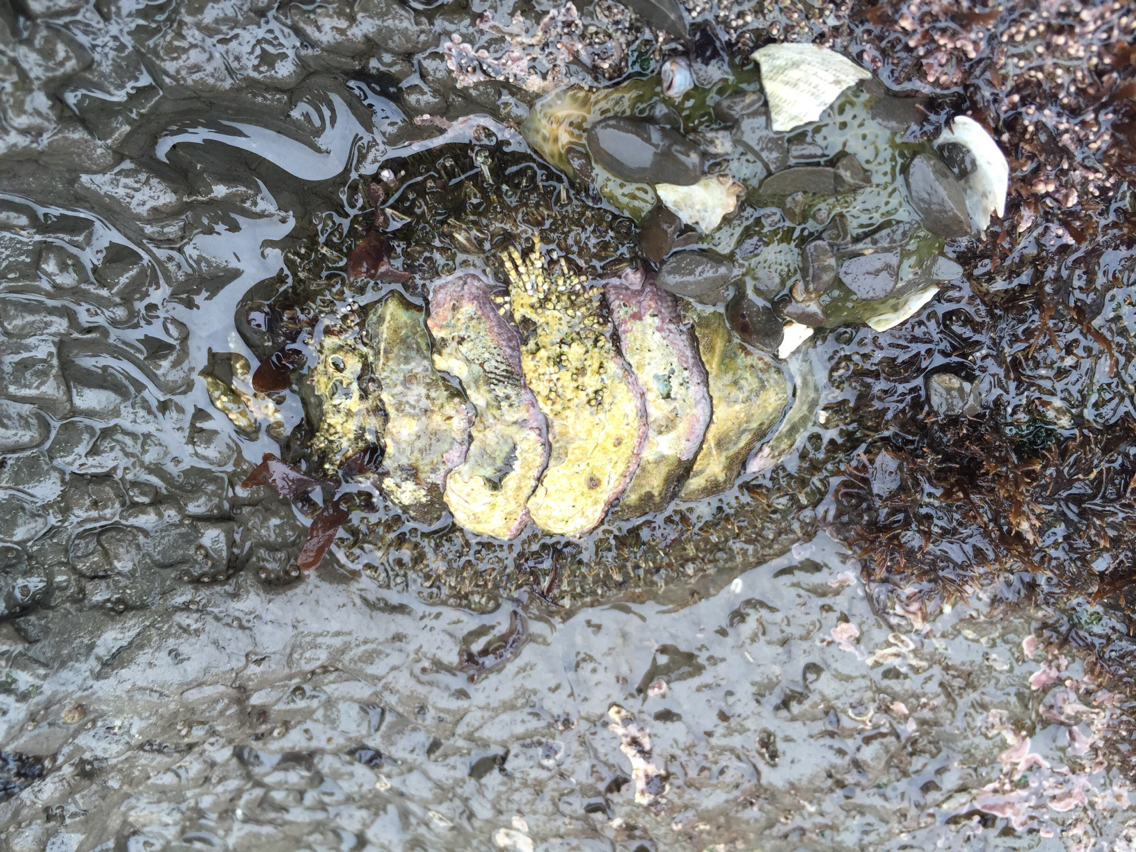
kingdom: Animalia
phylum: Mollusca
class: Polyplacophora
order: Chitonida
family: Mopaliidae
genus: Mopalia
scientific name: Mopalia muscosa
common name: Mossy chiton
